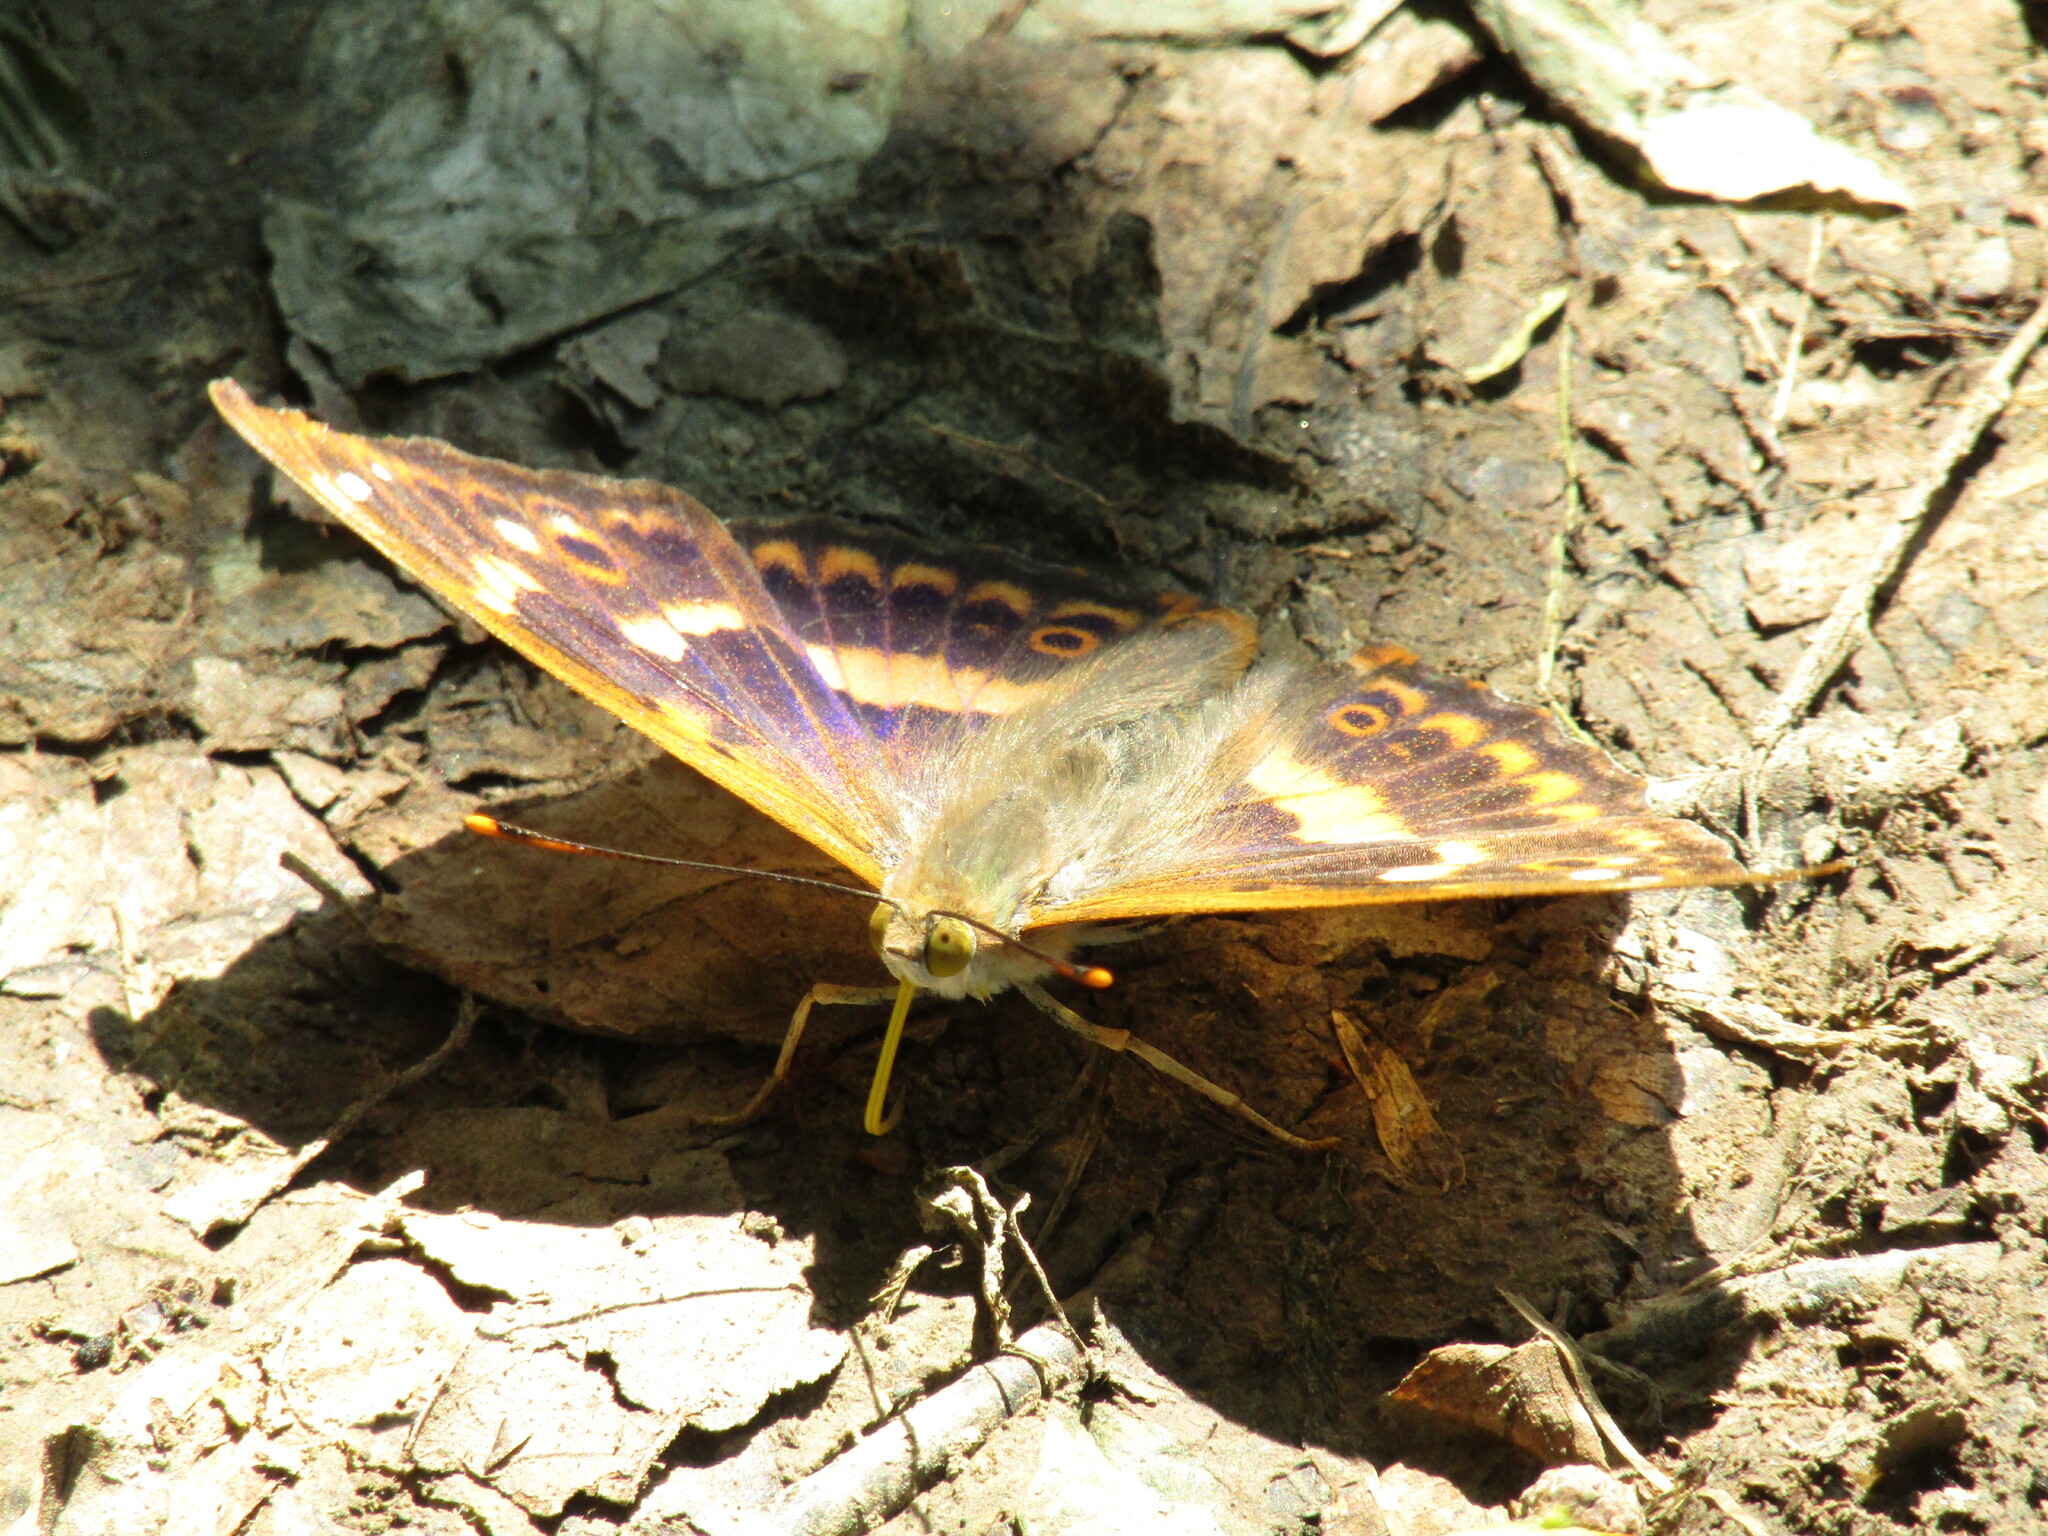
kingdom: Animalia
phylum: Arthropoda
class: Insecta
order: Lepidoptera
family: Nymphalidae
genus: Apatura
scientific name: Apatura ilia
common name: Lesser purple emperor
